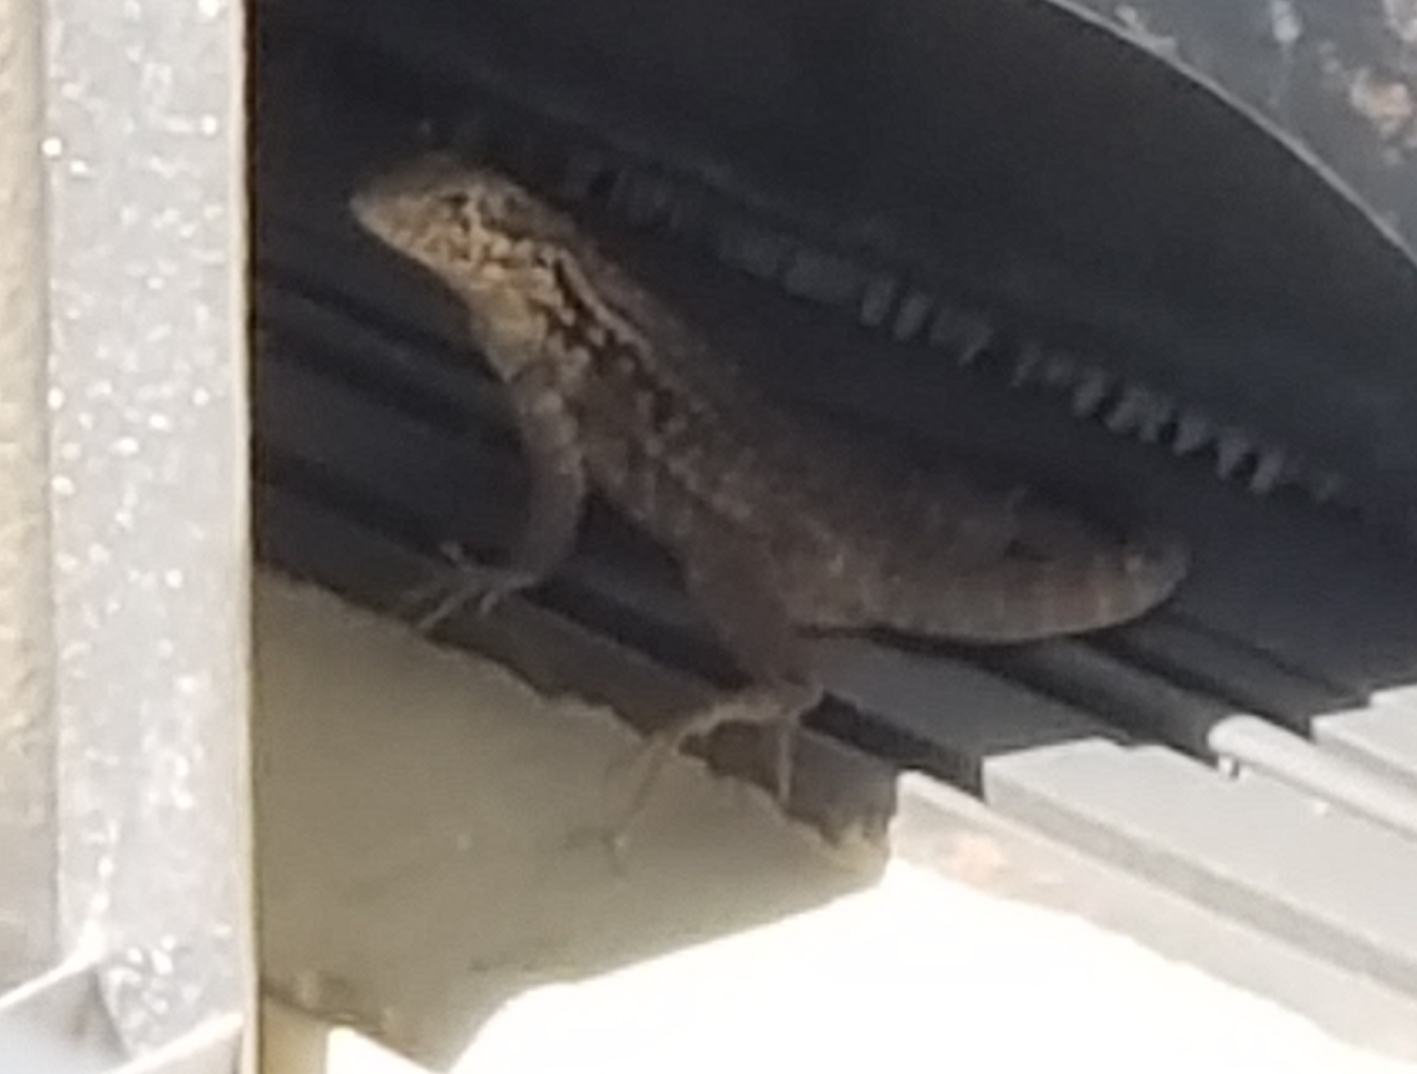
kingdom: Animalia
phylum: Chordata
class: Squamata
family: Leiocephalidae
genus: Leiocephalus
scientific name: Leiocephalus carinatus
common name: Northern curly-tailed lizard
